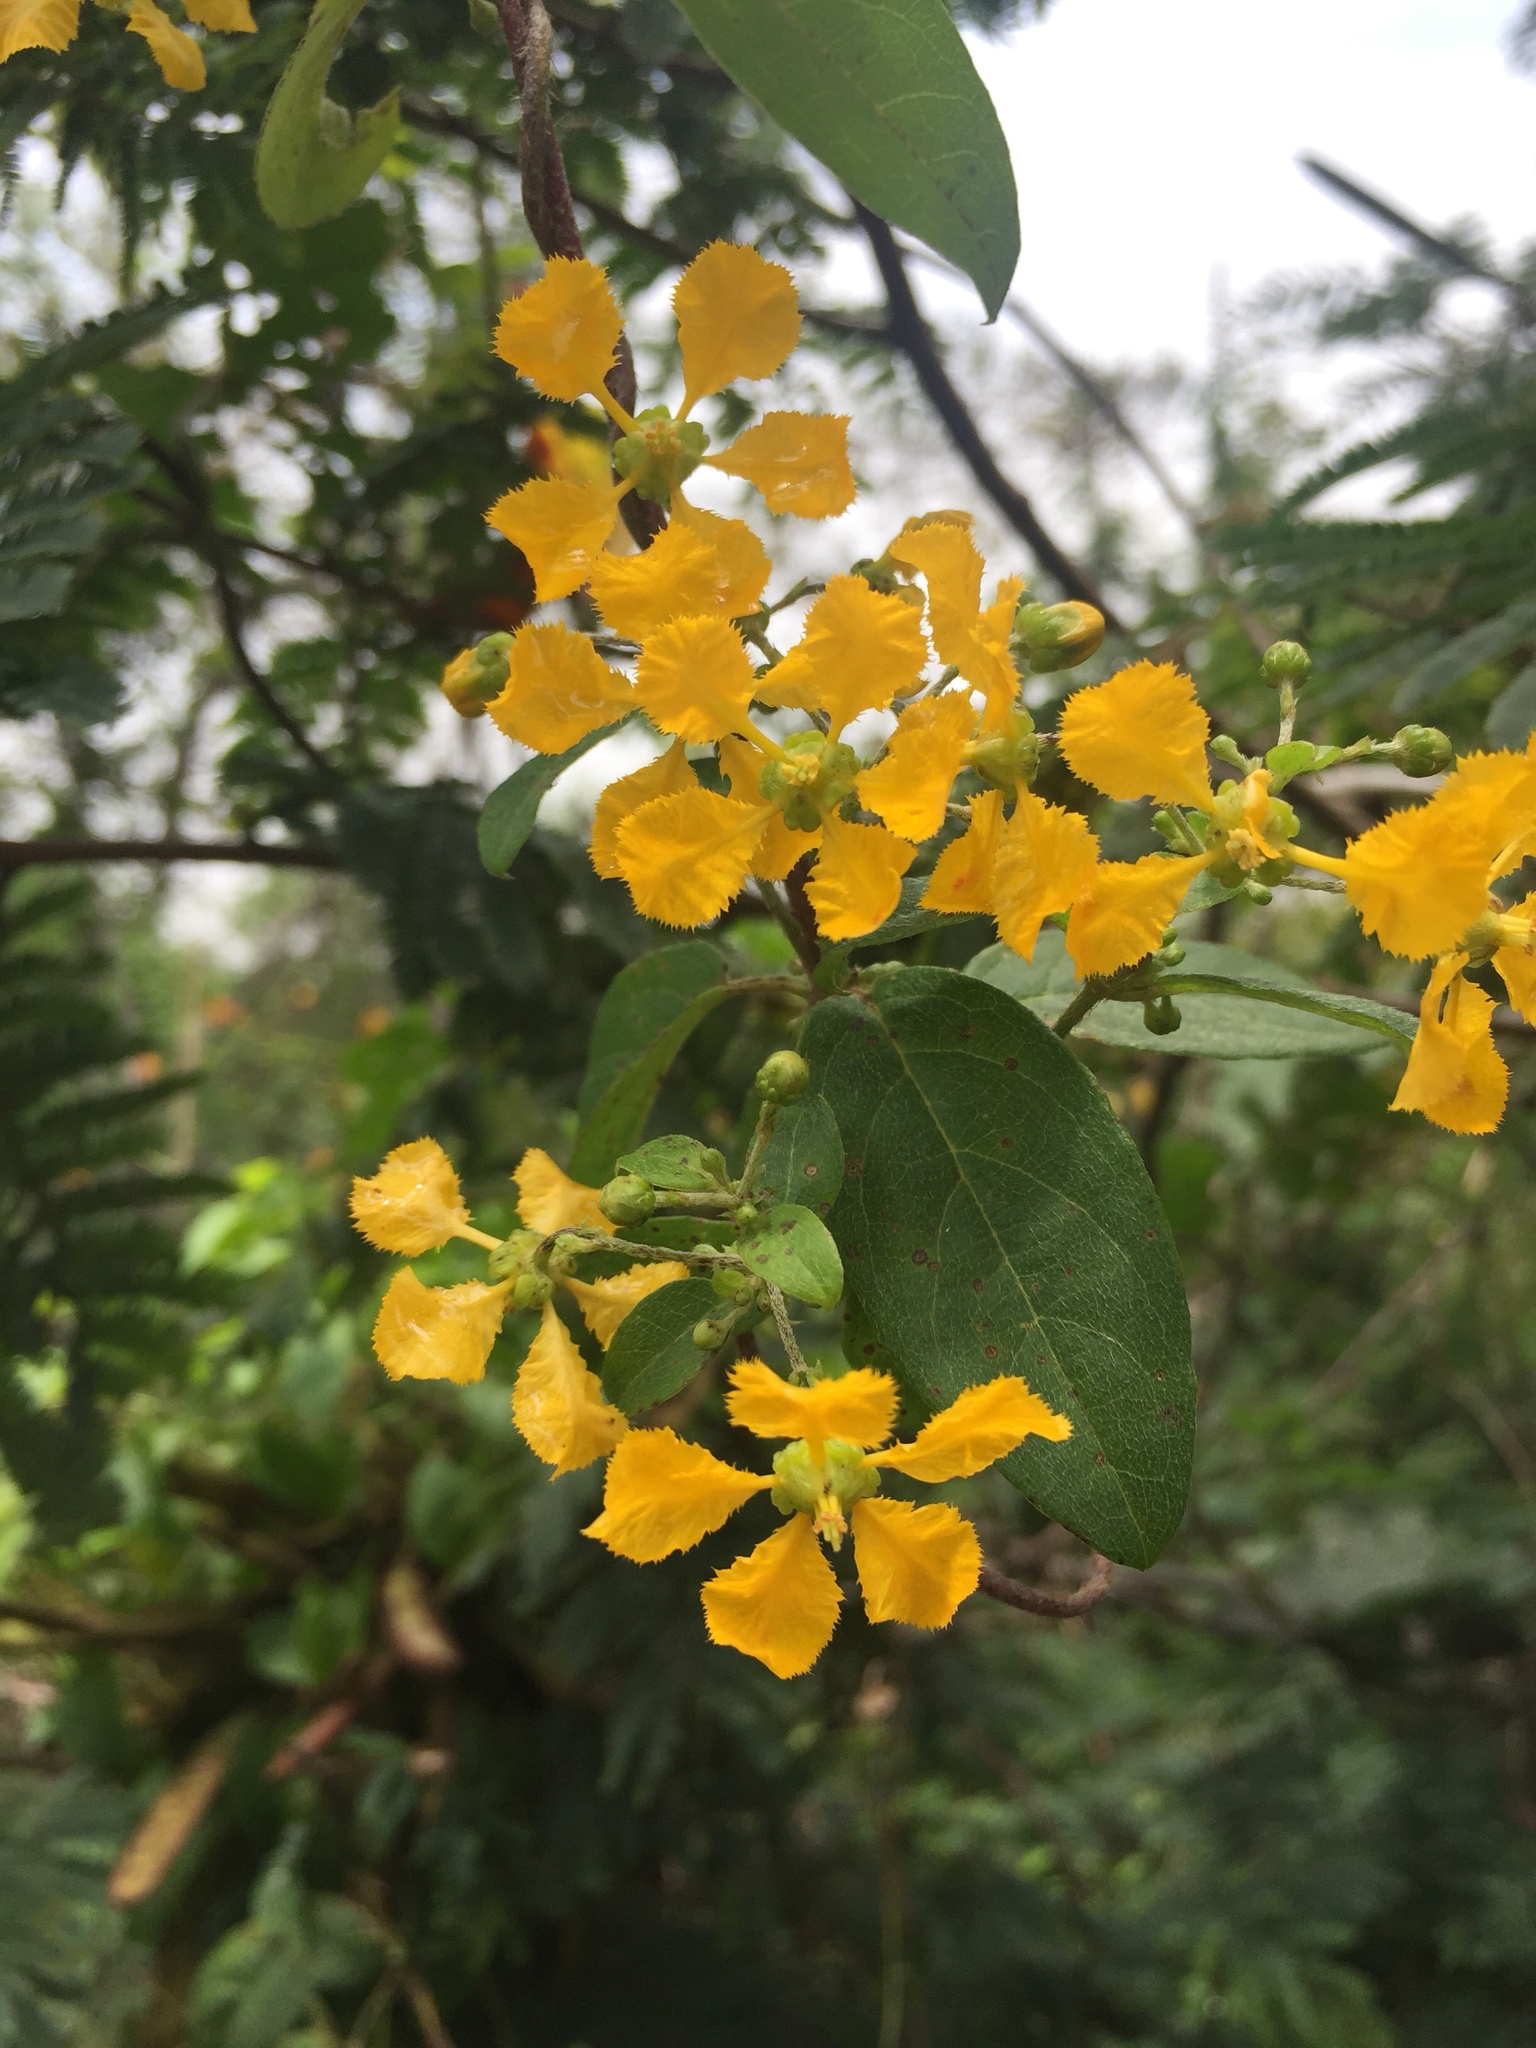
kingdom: Plantae
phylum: Tracheophyta
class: Magnoliopsida
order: Malpighiales
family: Malpighiaceae
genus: Gaudichaudia
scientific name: Gaudichaudia cynanchoides
